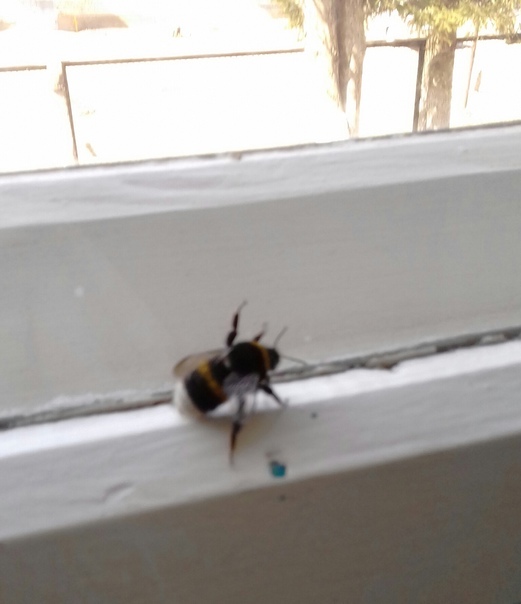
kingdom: Animalia
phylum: Arthropoda
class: Insecta
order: Hymenoptera
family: Apidae
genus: Bombus
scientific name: Bombus
